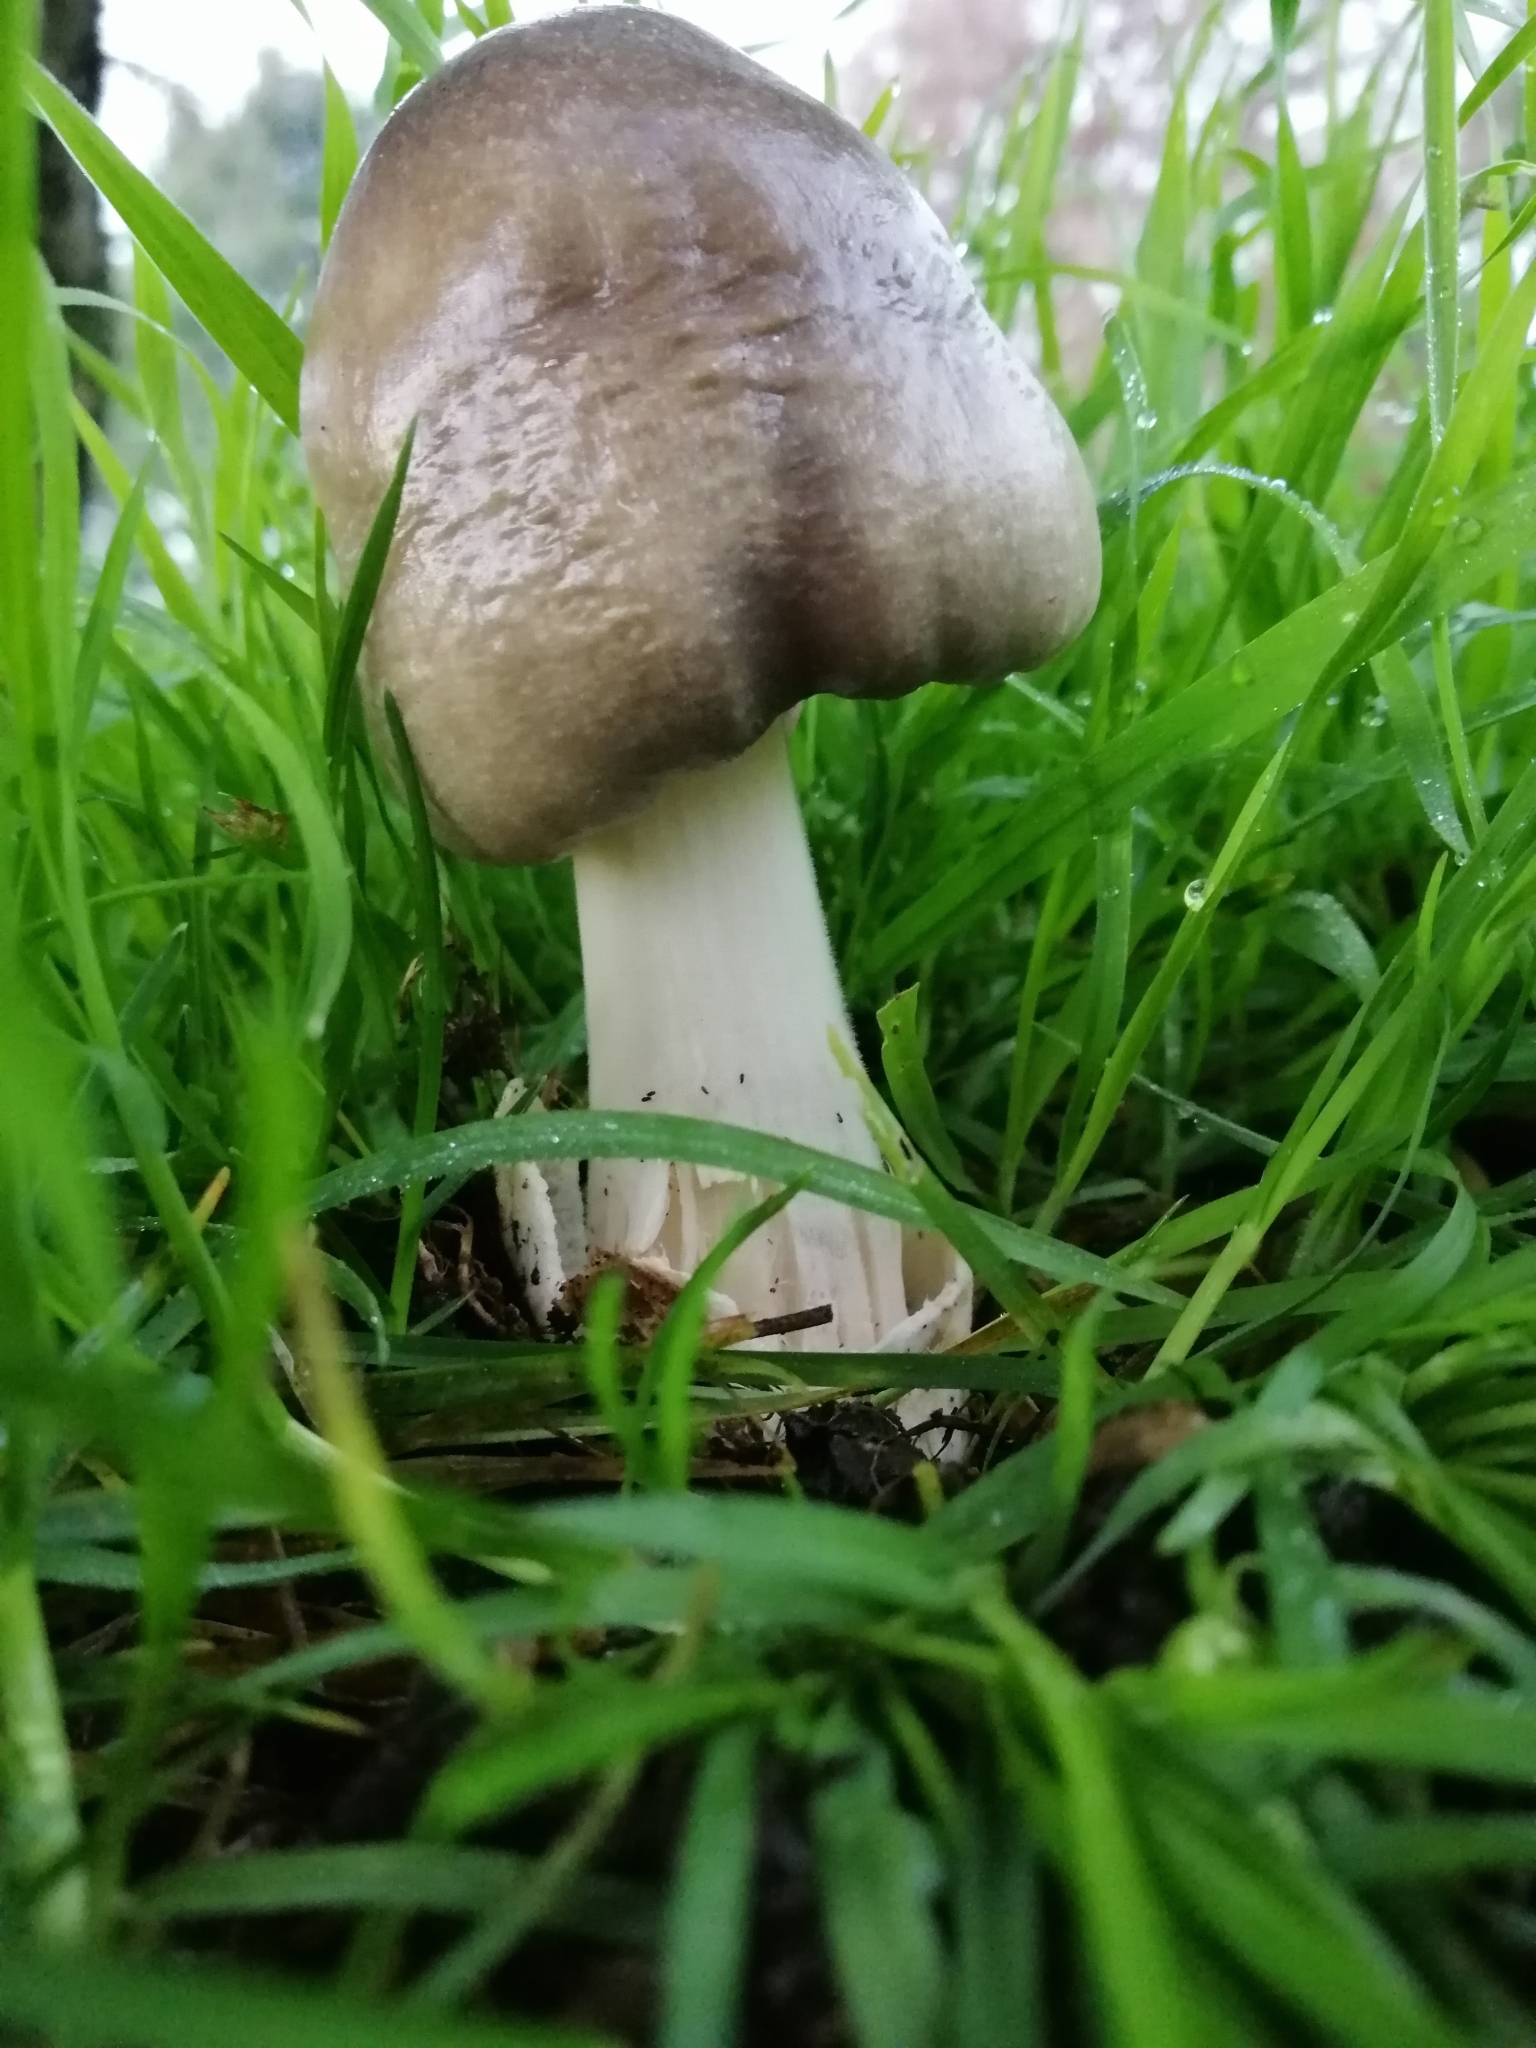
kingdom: Fungi
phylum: Basidiomycota
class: Agaricomycetes
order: Agaricales
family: Pluteaceae
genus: Volvopluteus
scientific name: Volvopluteus gloiocephalus
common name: Stubble rosegill
